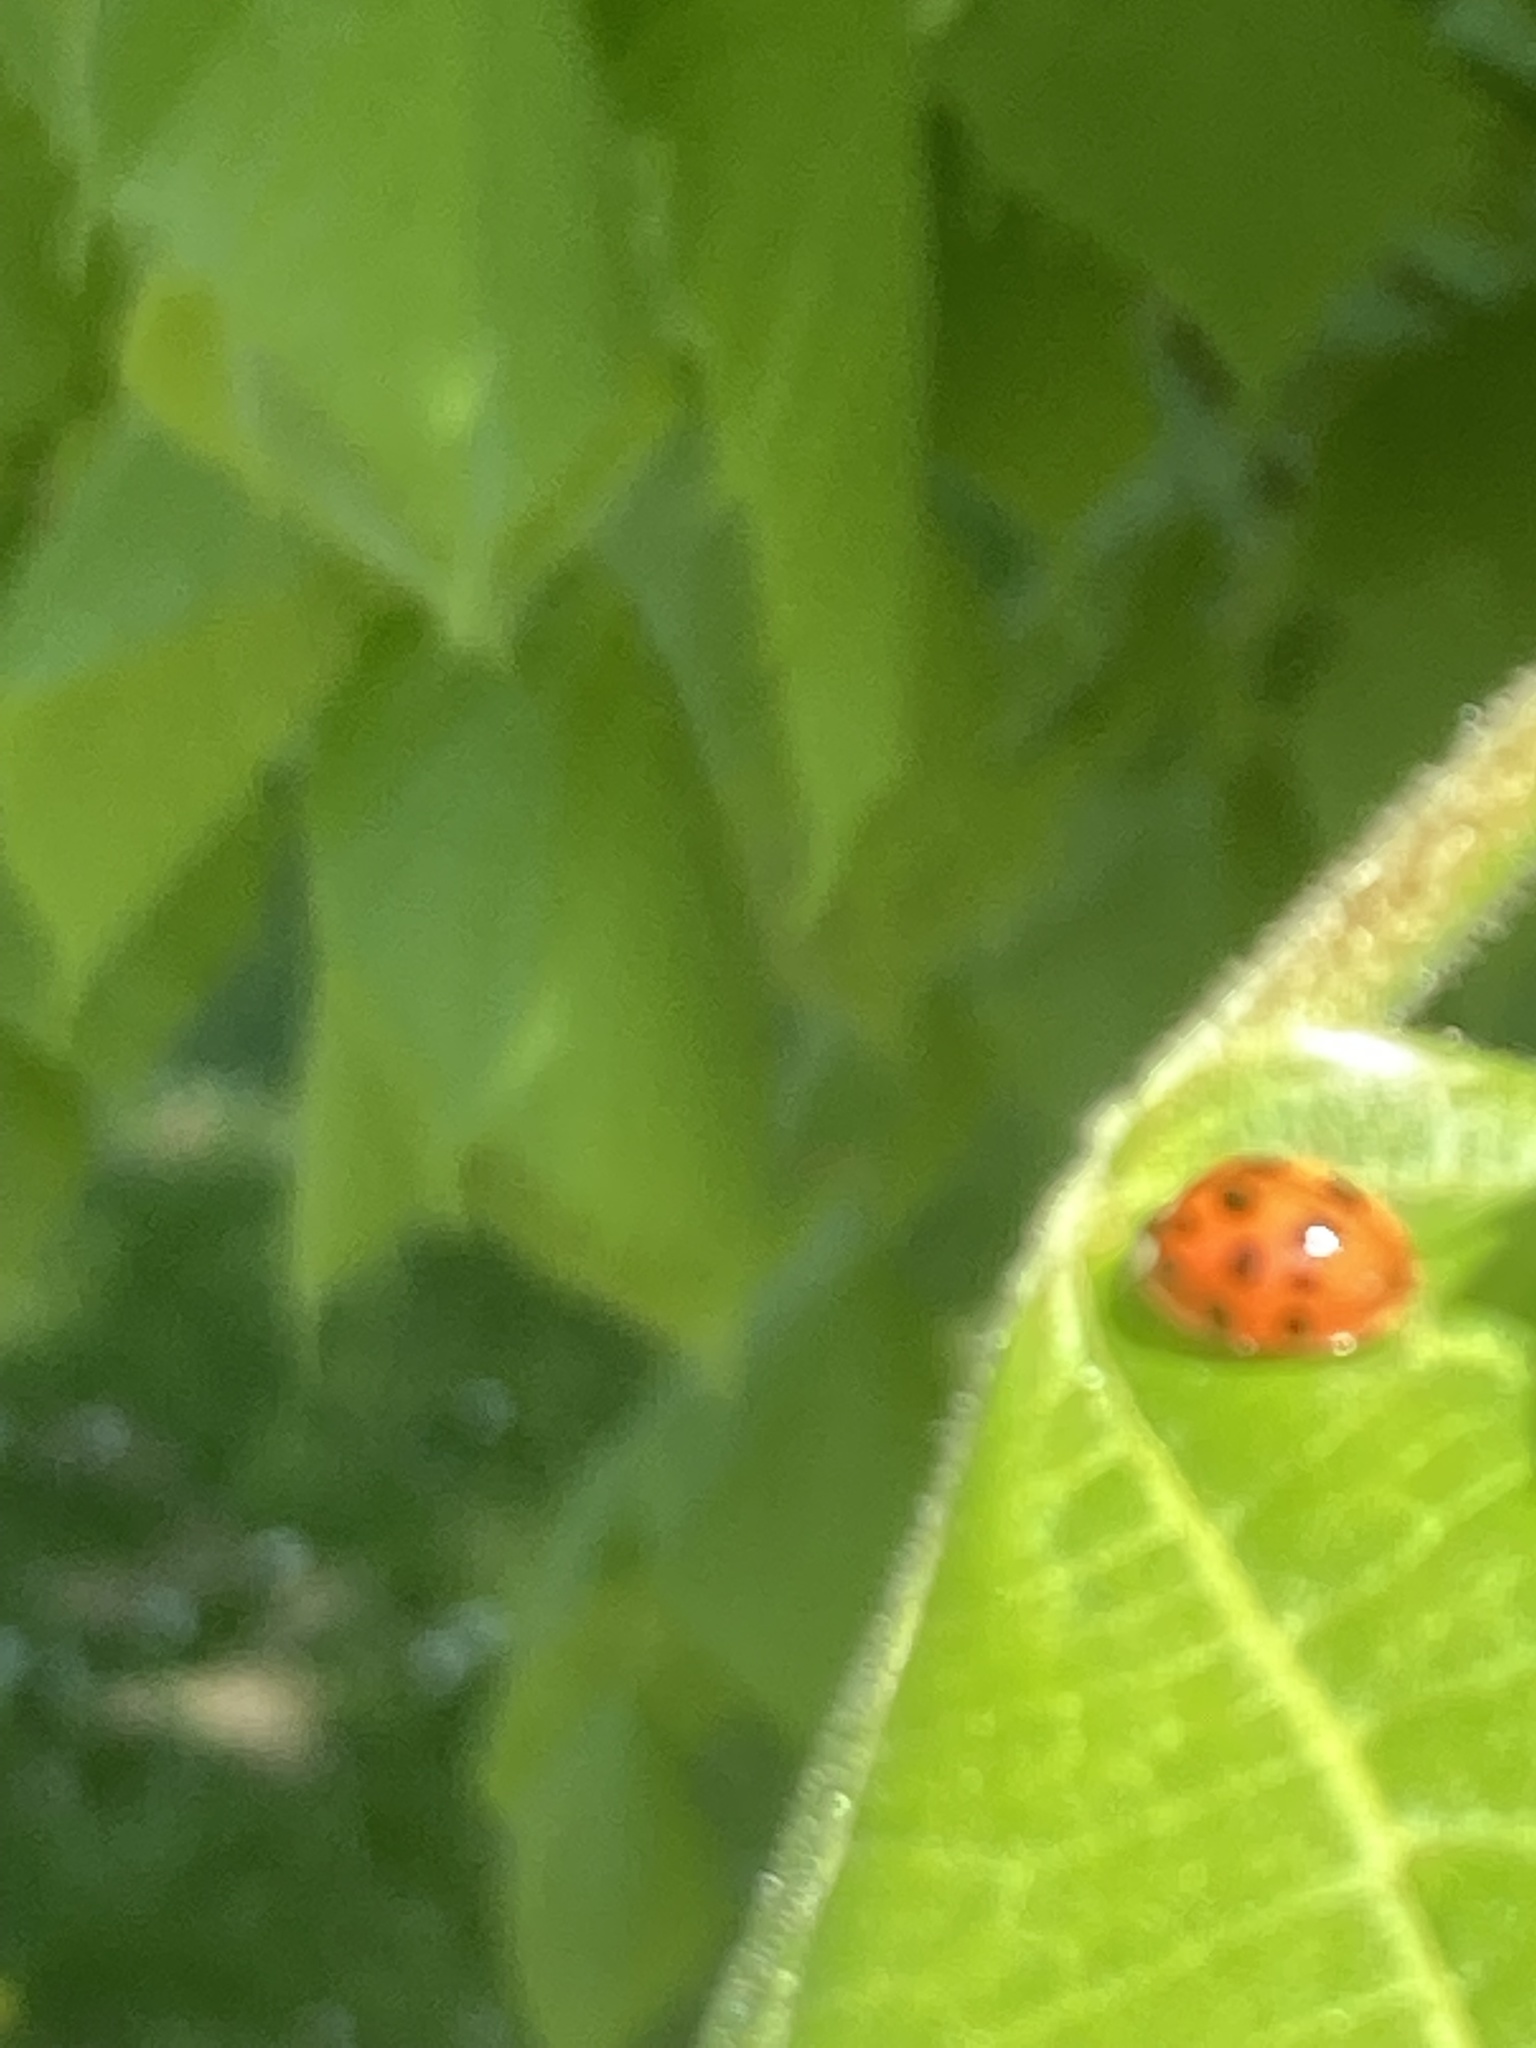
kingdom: Animalia
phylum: Arthropoda
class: Insecta
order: Coleoptera
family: Coccinellidae
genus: Harmonia
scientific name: Harmonia axyridis
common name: Harlequin ladybird
